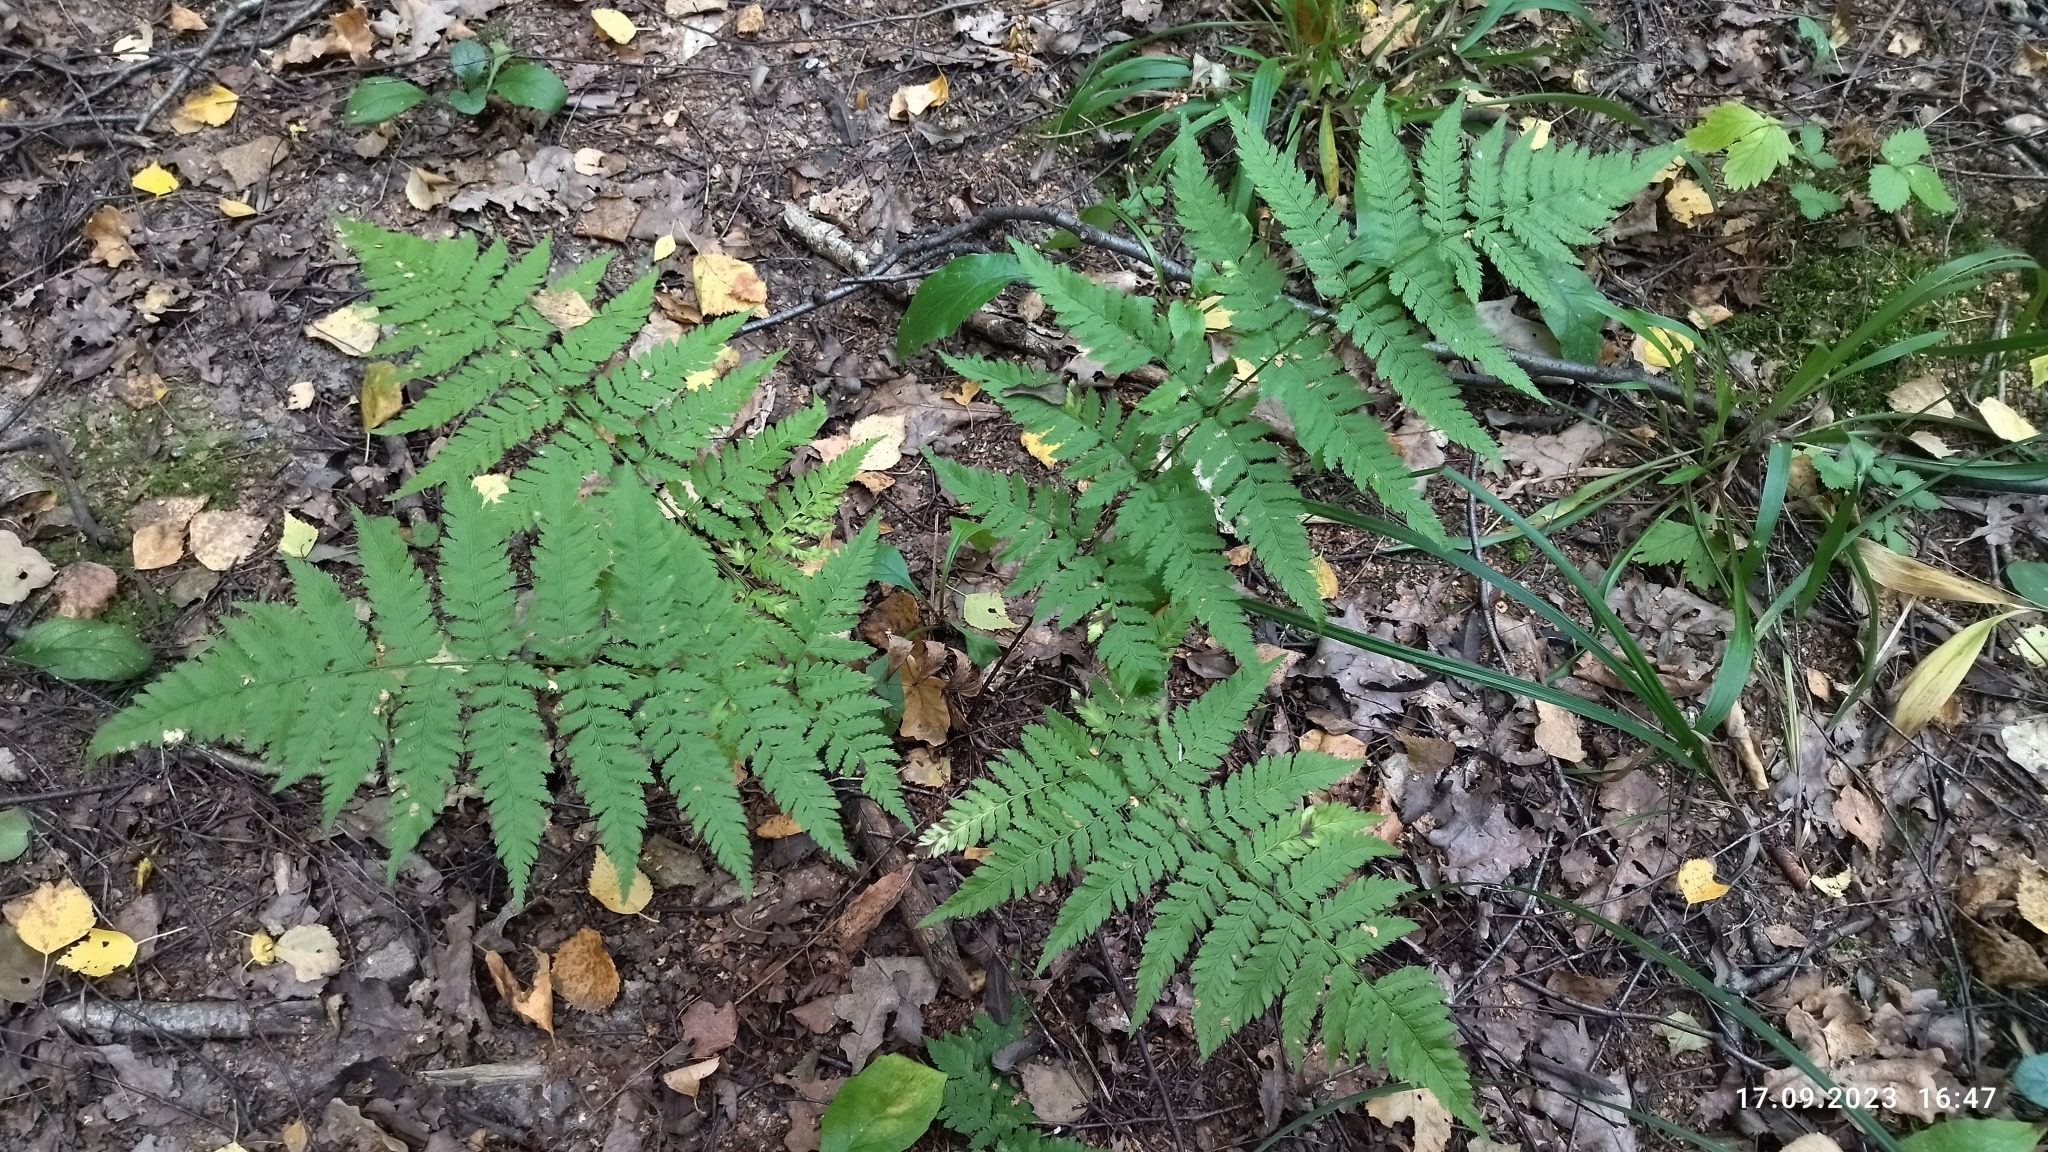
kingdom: Plantae
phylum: Tracheophyta
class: Polypodiopsida
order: Polypodiales
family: Dryopteridaceae
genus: Dryopteris
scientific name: Dryopteris carthusiana
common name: Narrow buckler-fern
